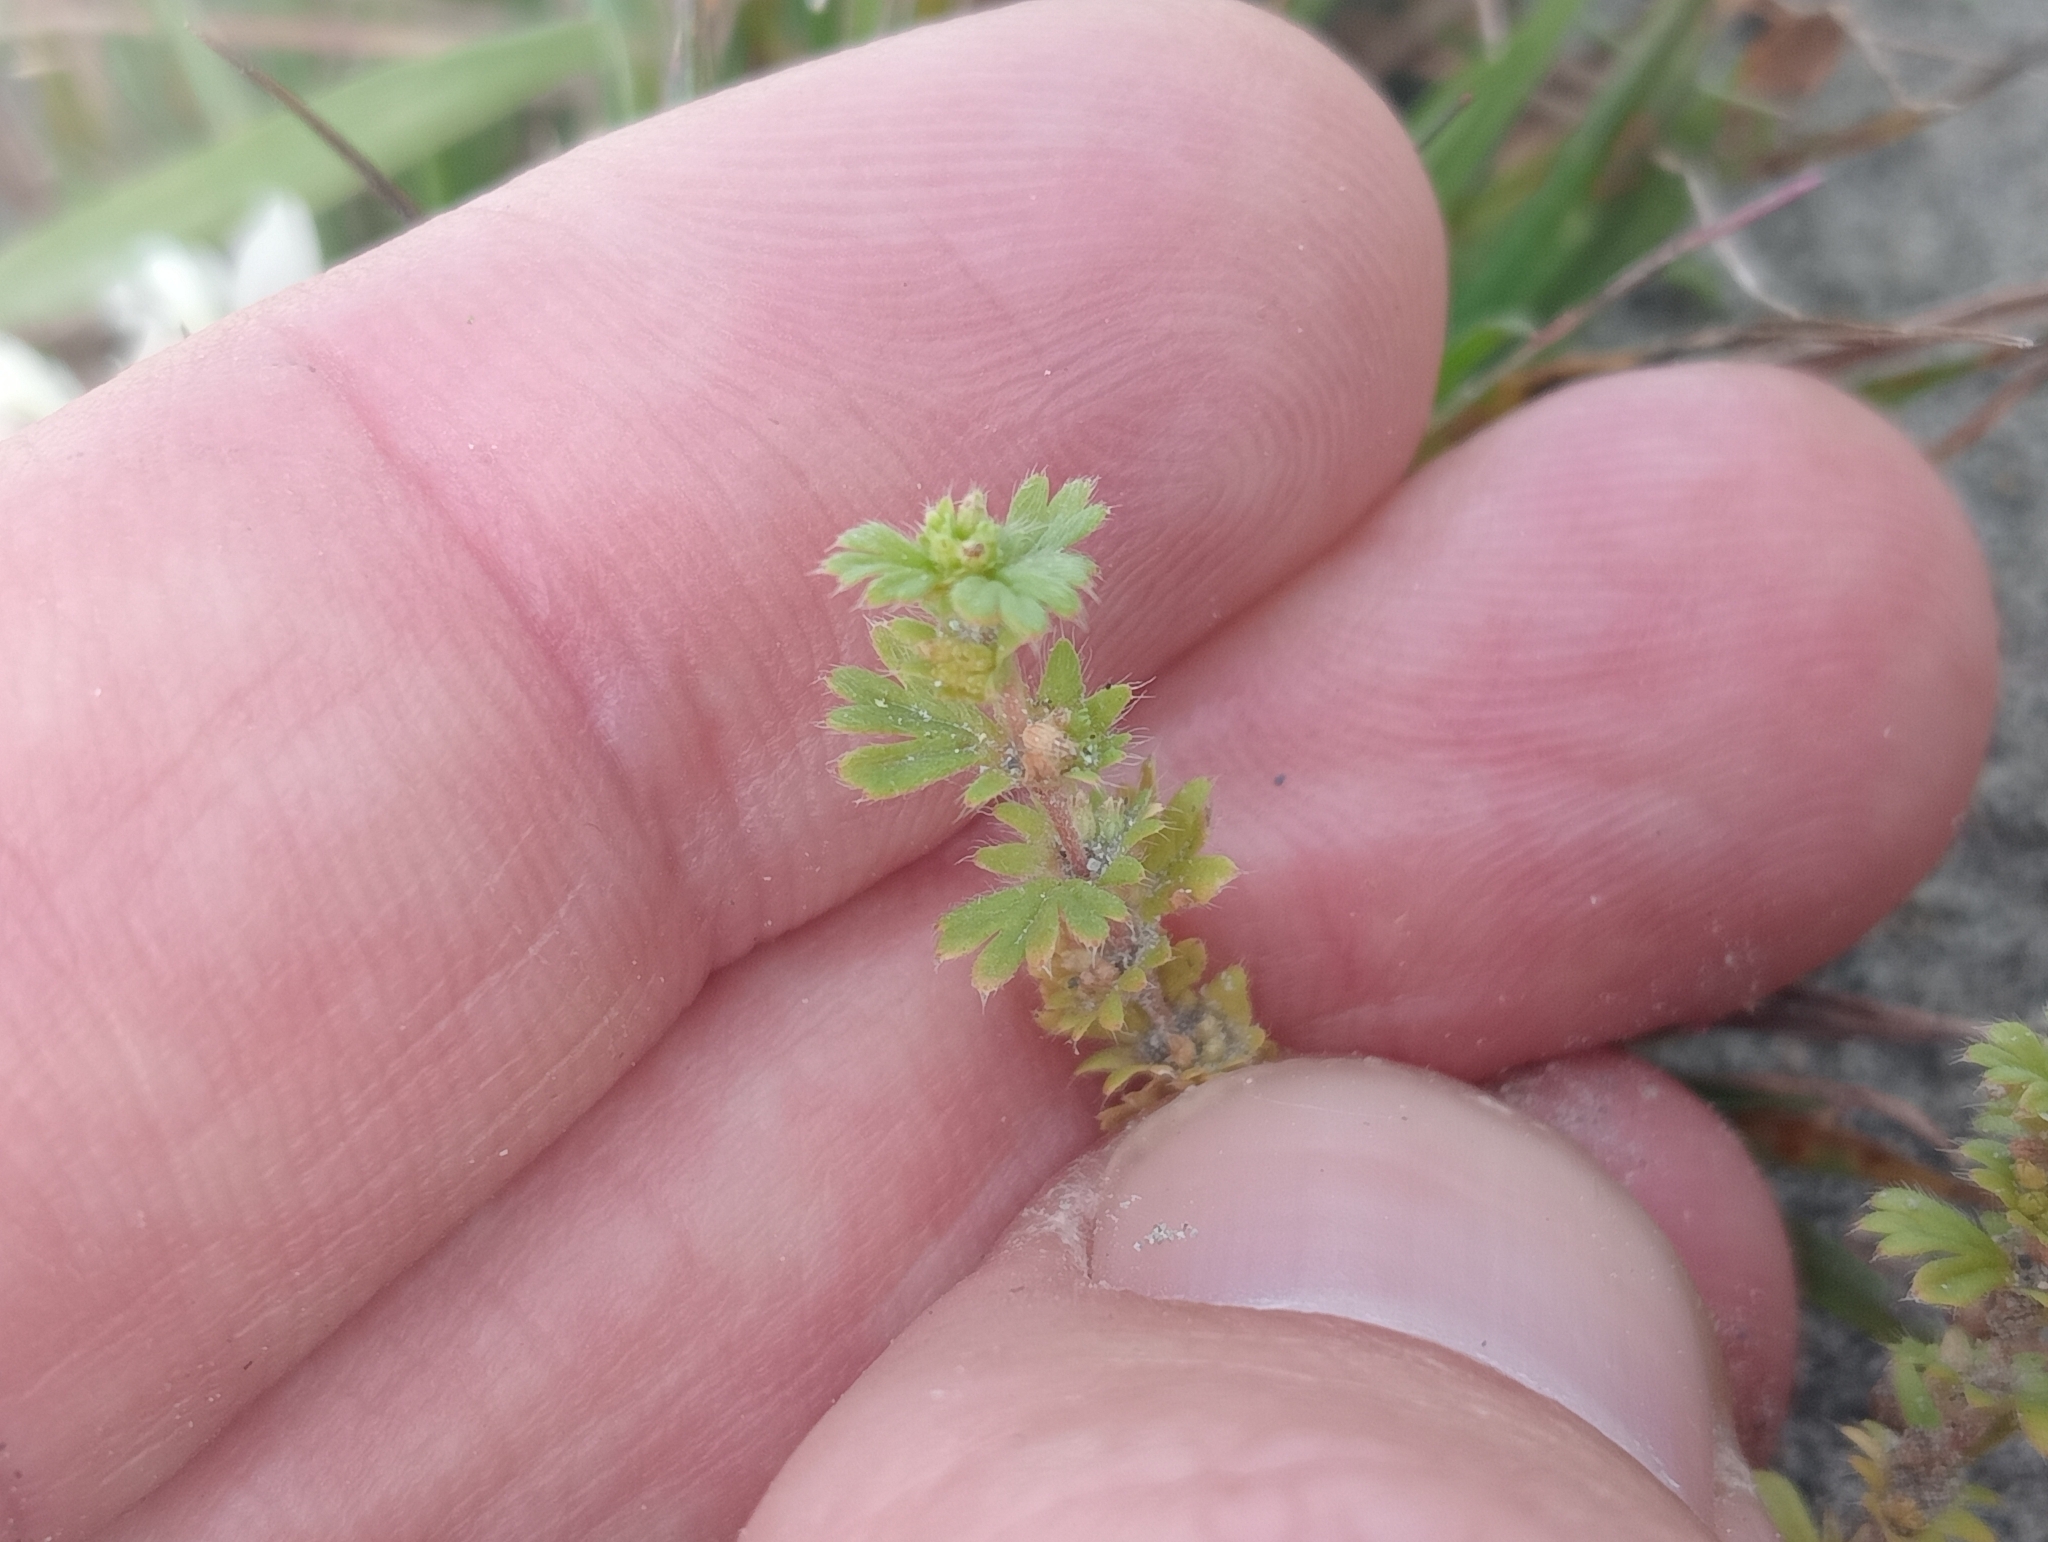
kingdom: Plantae
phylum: Tracheophyta
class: Magnoliopsida
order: Rosales
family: Rosaceae
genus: Aphanes
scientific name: Aphanes australis
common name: Slender parsley-piert
